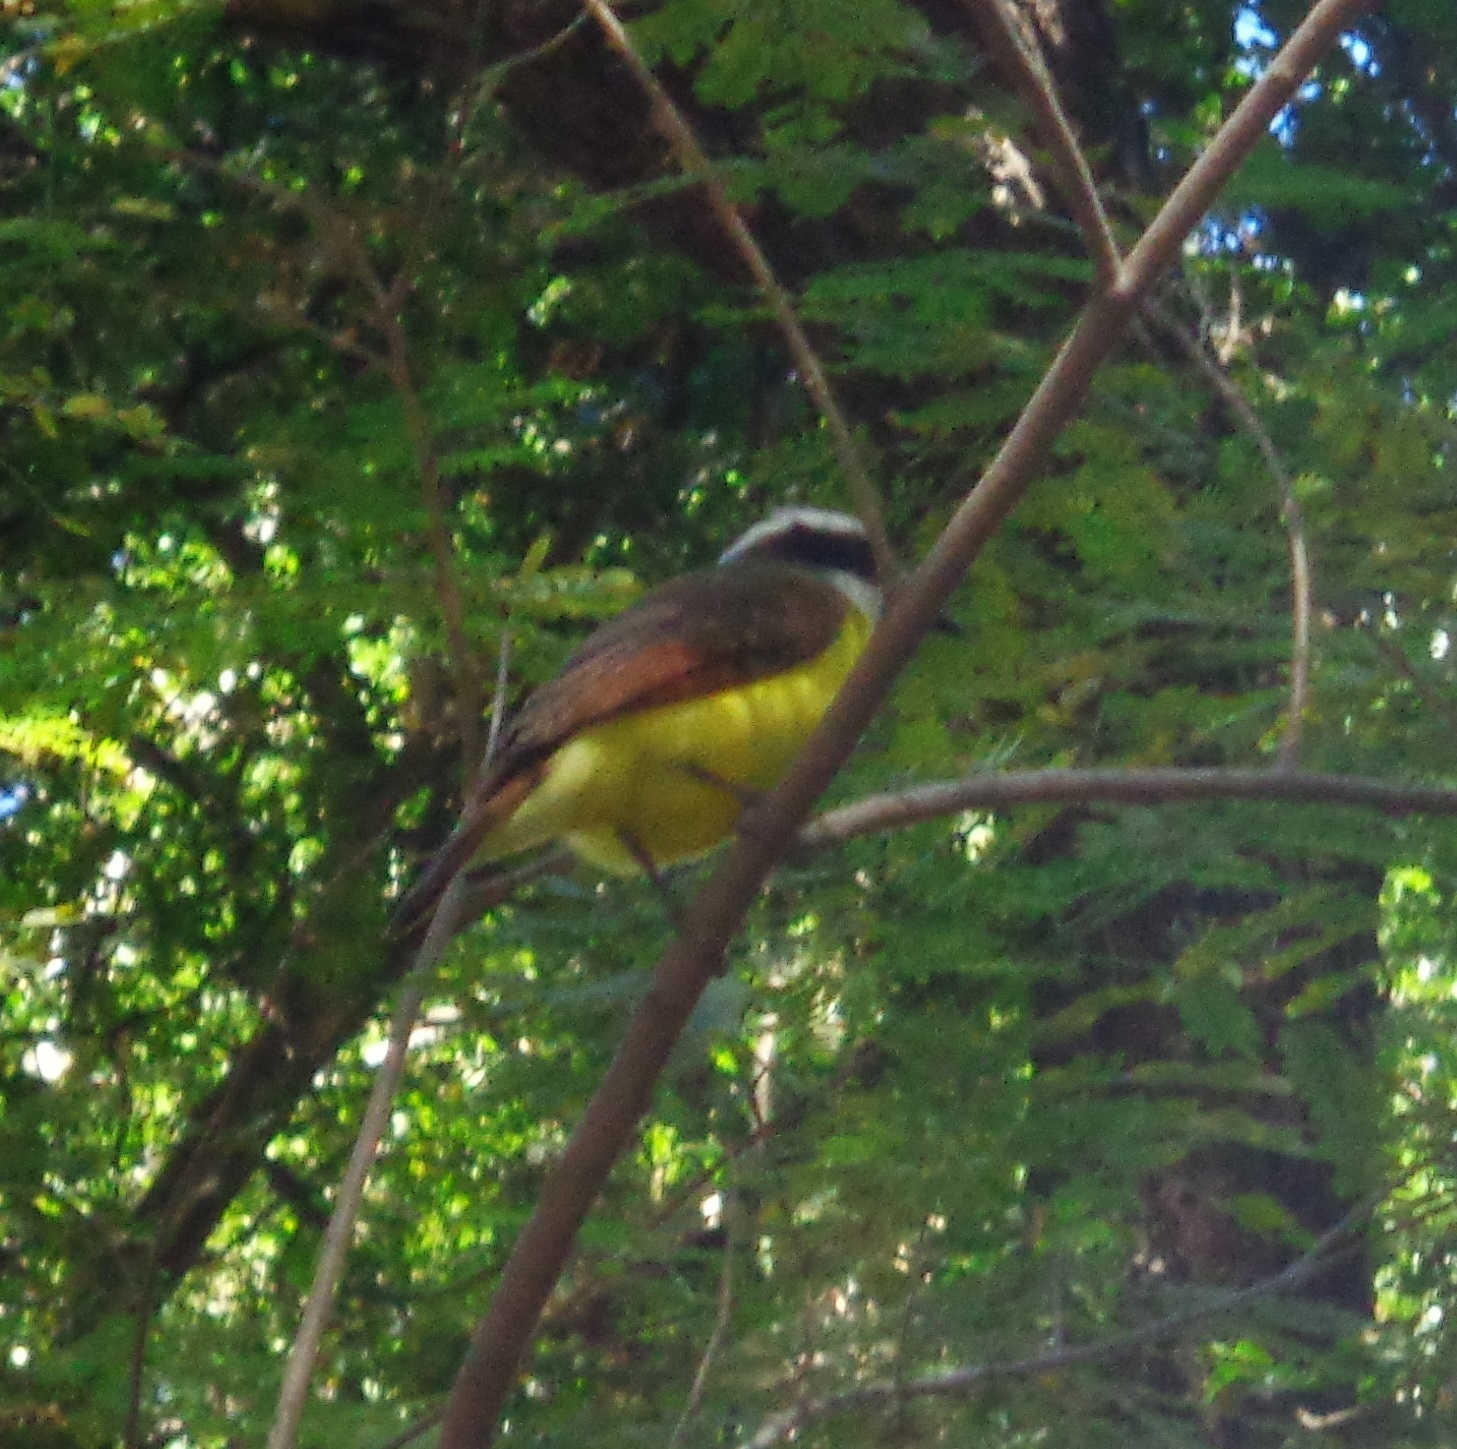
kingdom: Animalia
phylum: Chordata
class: Aves
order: Passeriformes
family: Tyrannidae
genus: Pitangus
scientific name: Pitangus sulphuratus
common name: Great kiskadee
